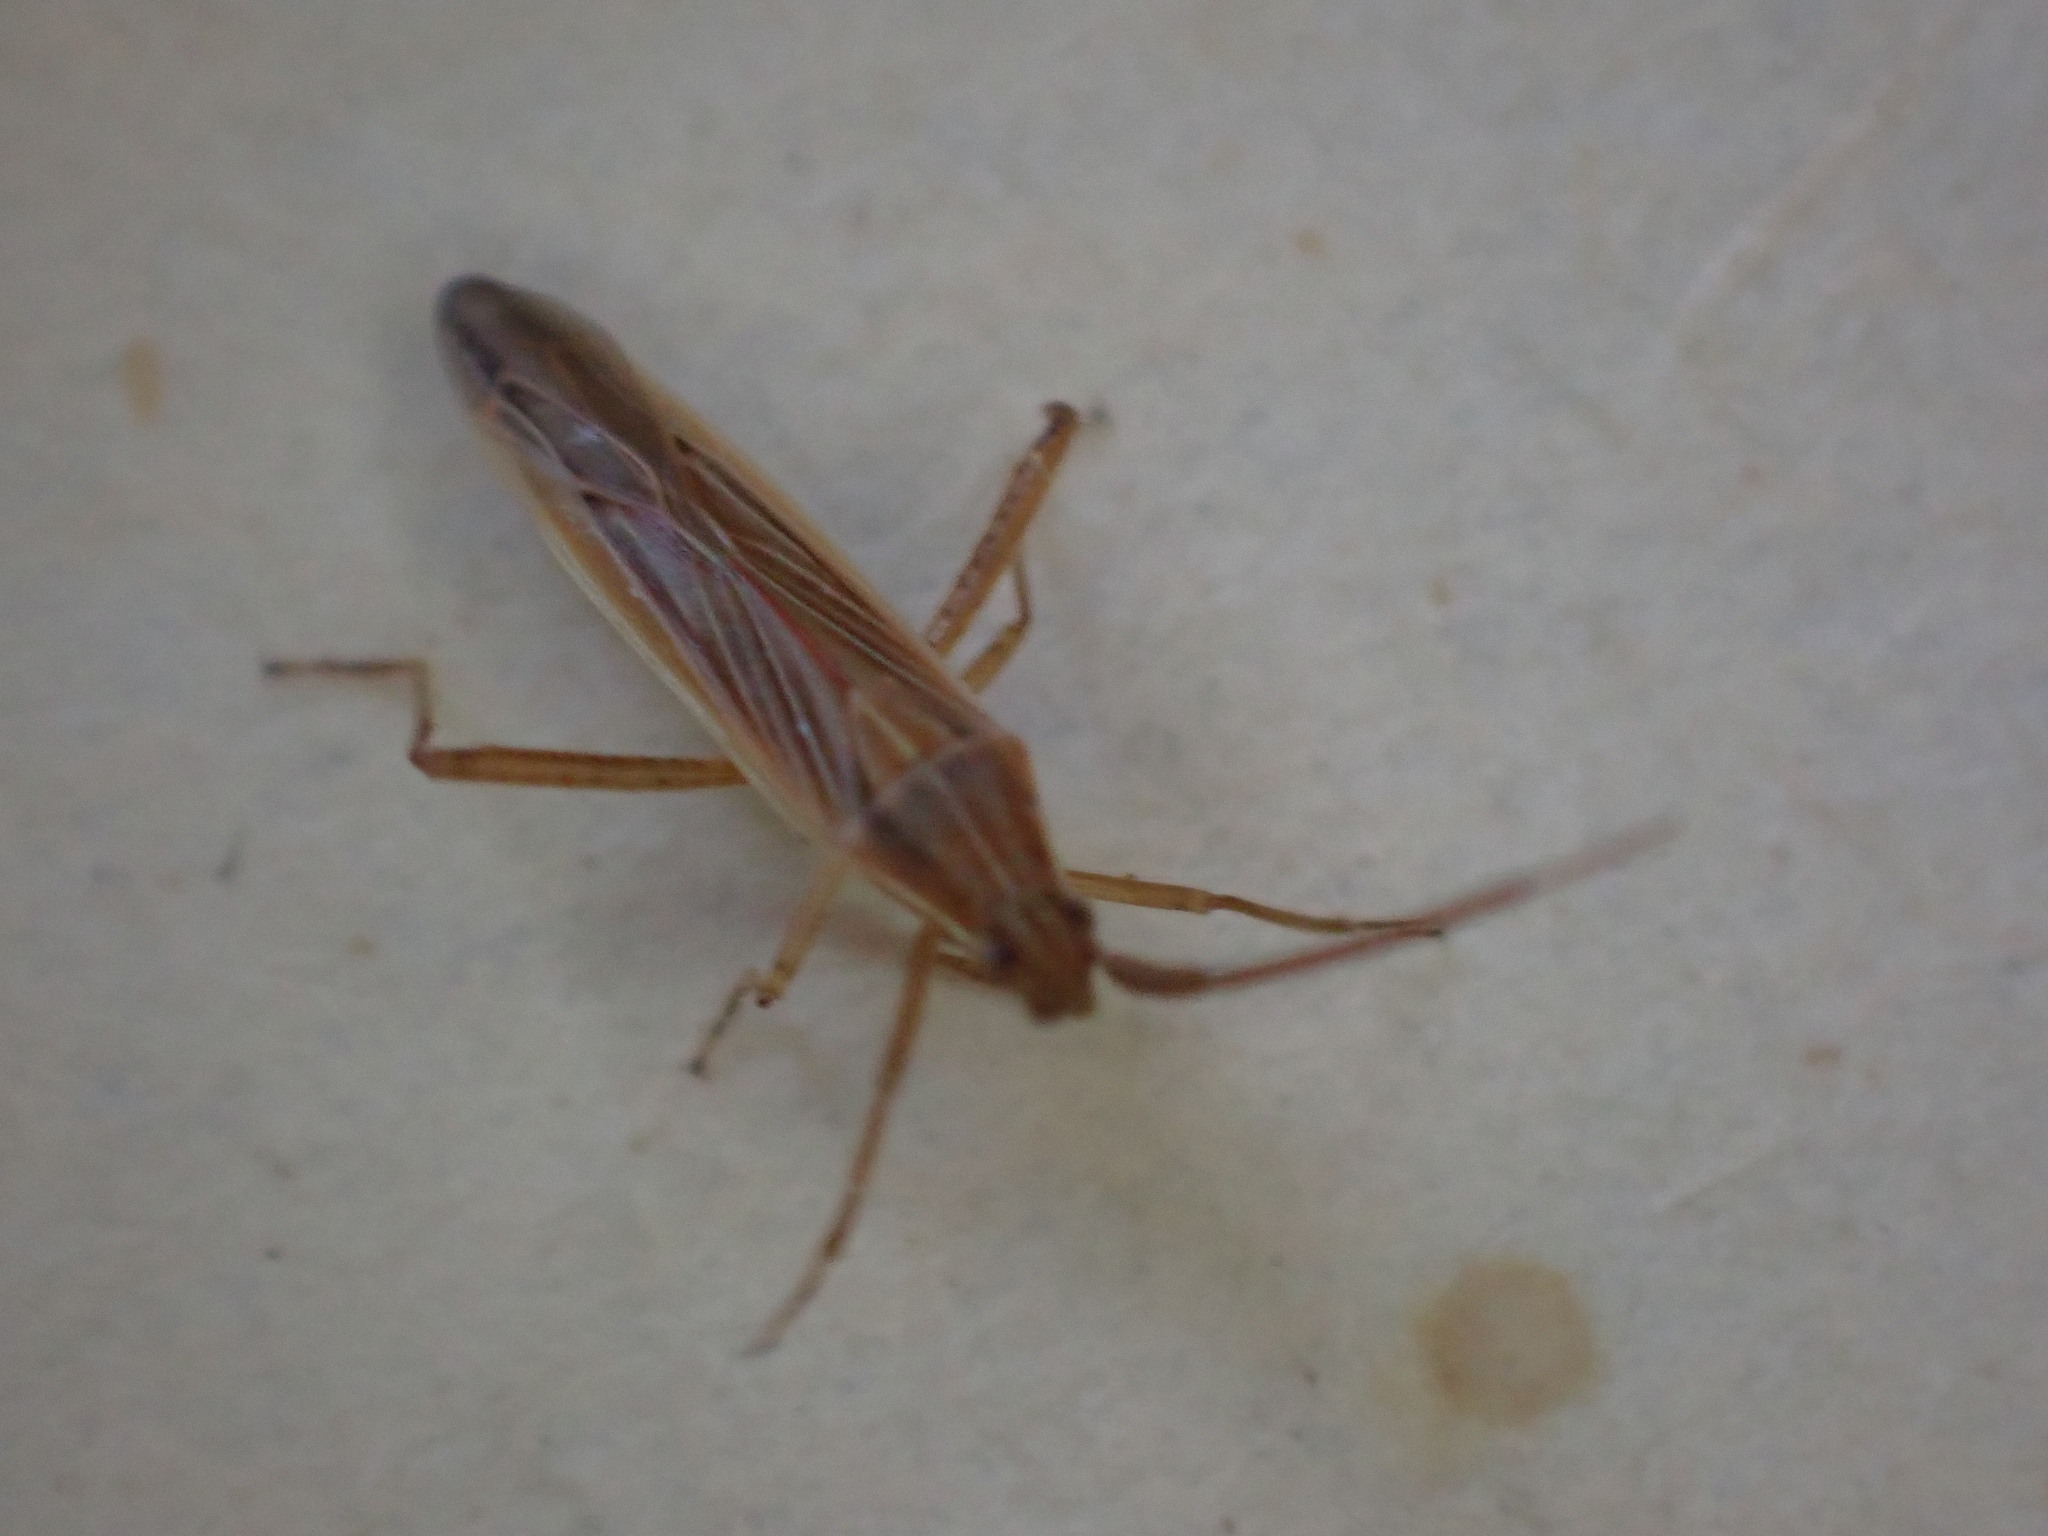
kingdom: Animalia
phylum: Arthropoda
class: Insecta
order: Hemiptera
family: Miridae
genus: Stenodema
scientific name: Stenodema calcarata
